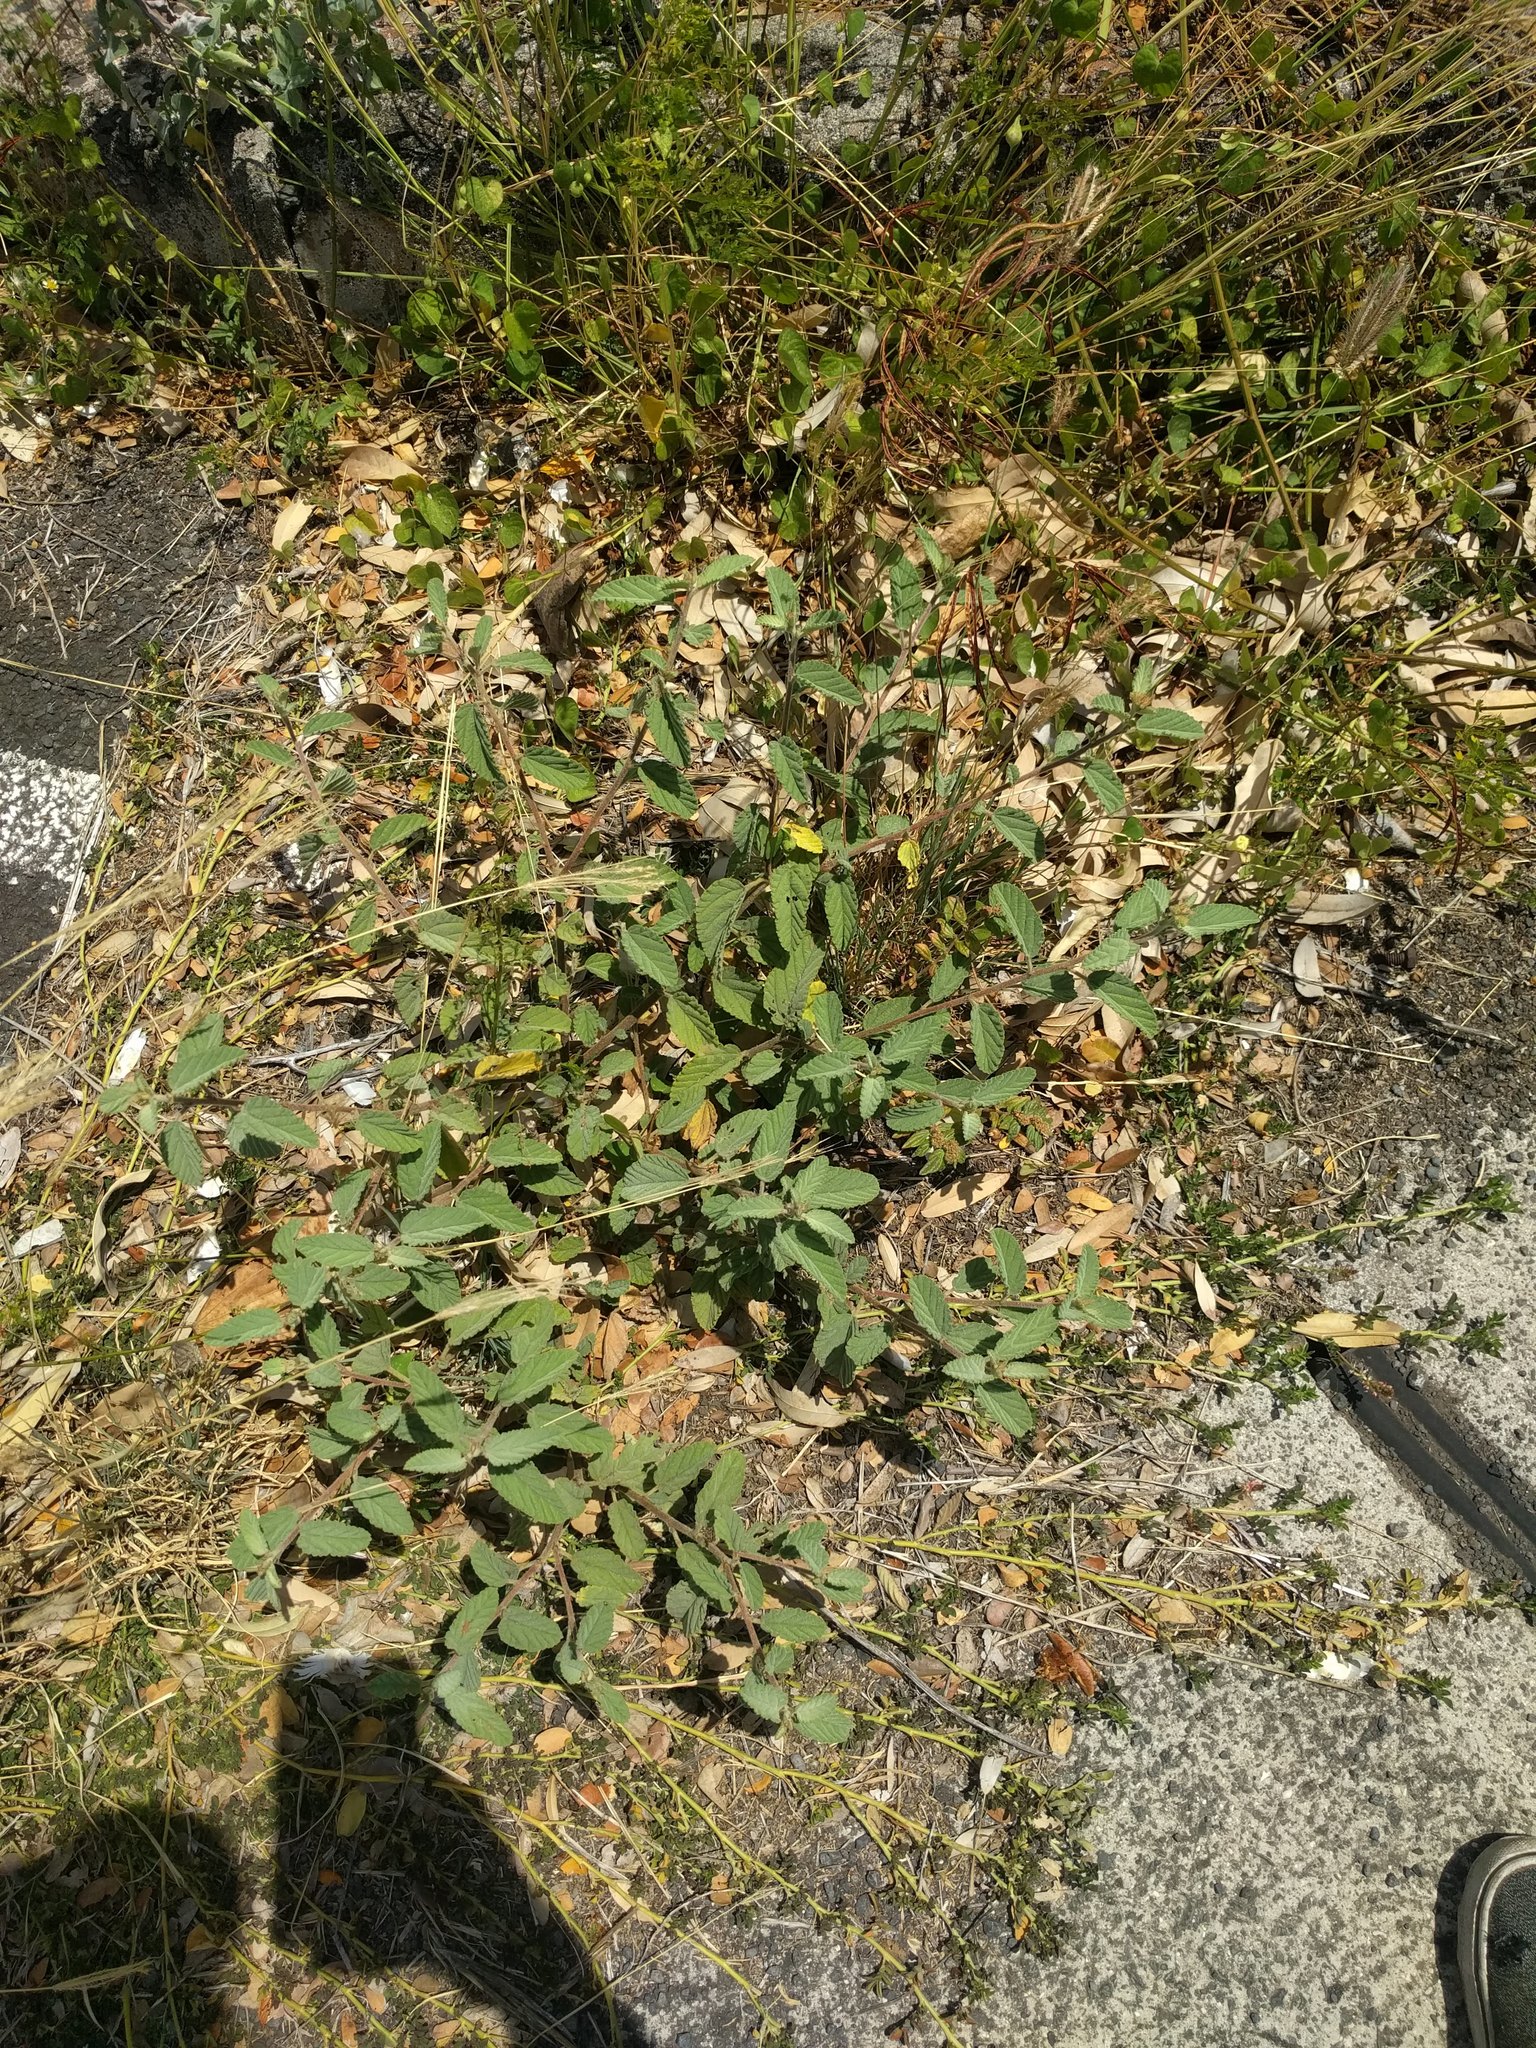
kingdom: Plantae
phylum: Tracheophyta
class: Magnoliopsida
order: Malvales
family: Malvaceae
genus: Waltheria
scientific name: Waltheria indica
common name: Leather-coat
